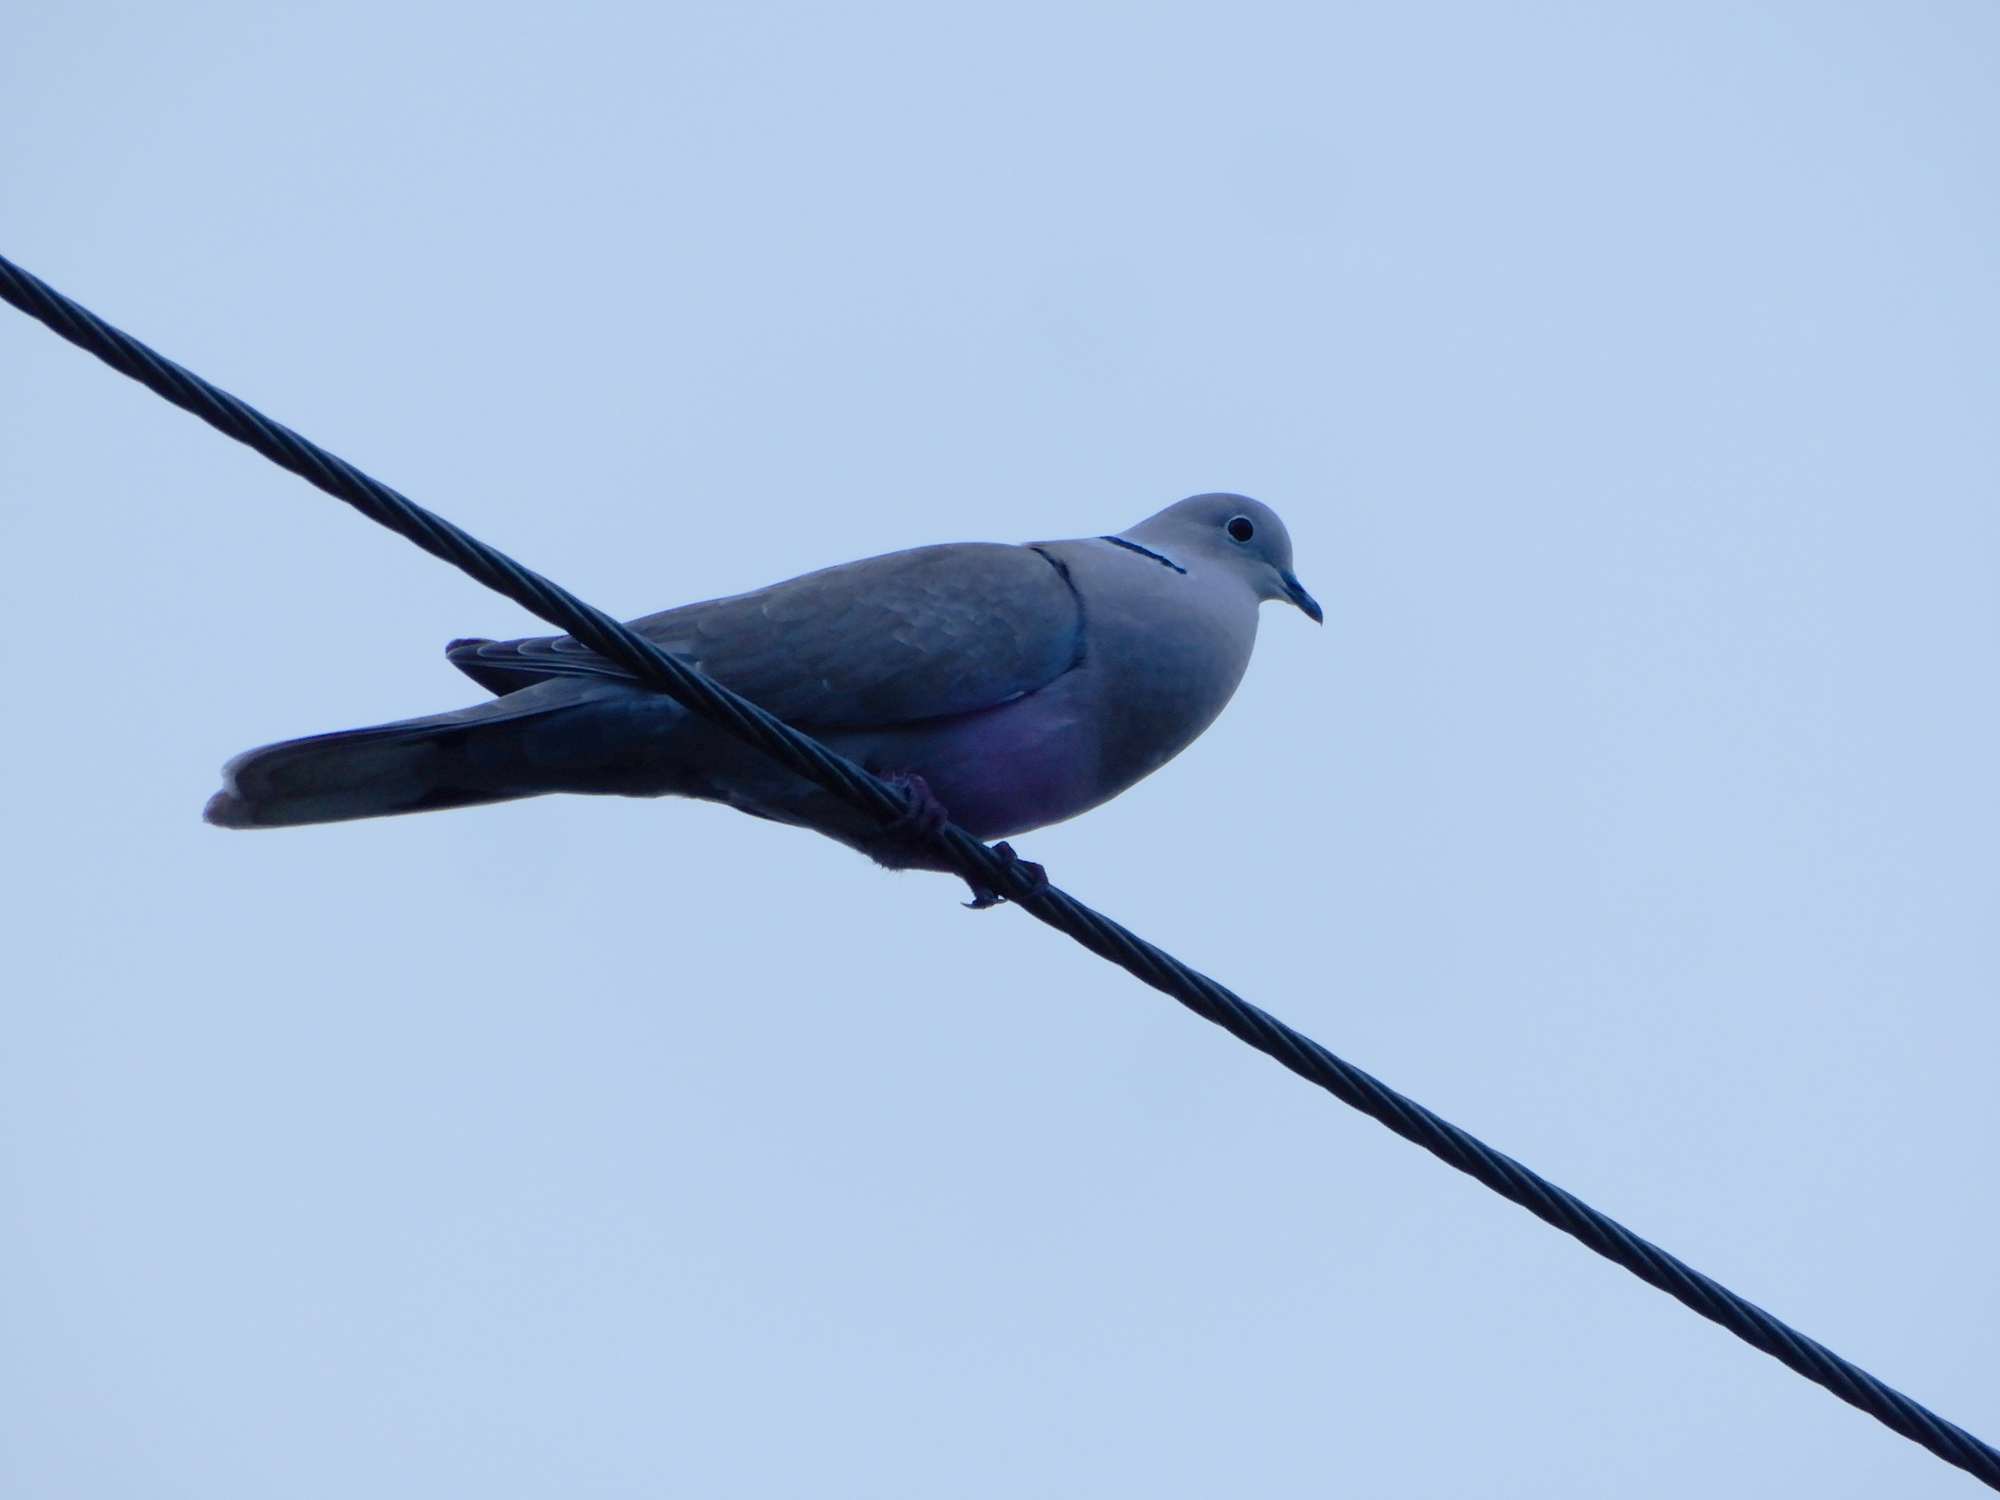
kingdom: Animalia
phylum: Chordata
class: Aves
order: Columbiformes
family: Columbidae
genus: Streptopelia
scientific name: Streptopelia decaocto
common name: Eurasian collared dove
